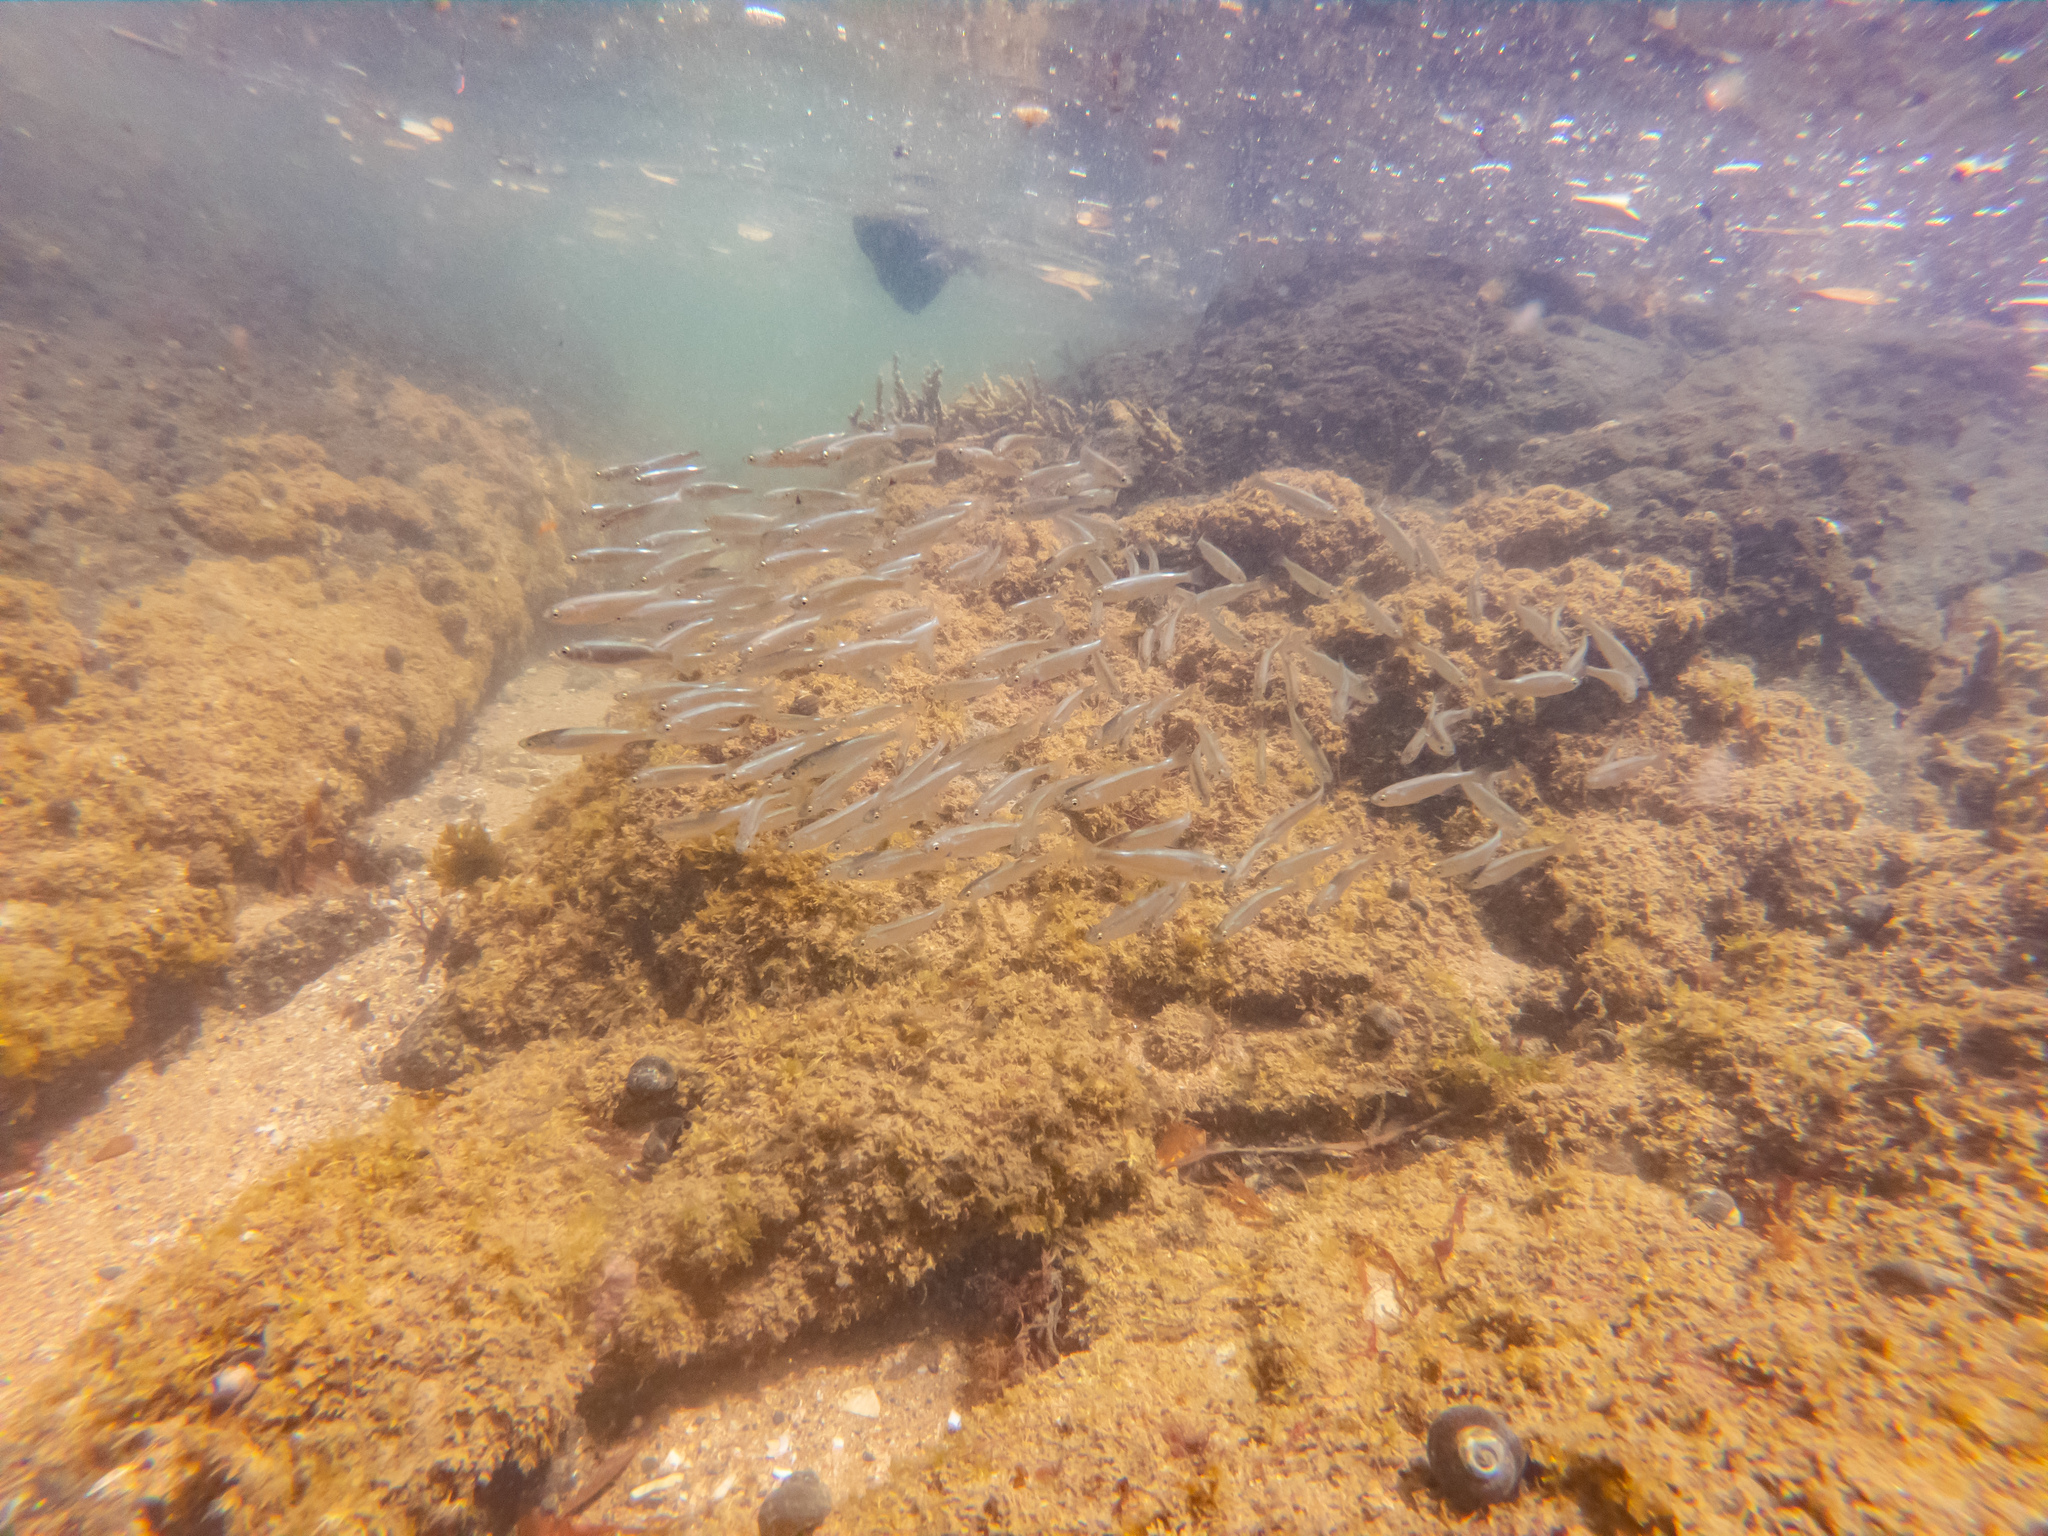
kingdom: Animalia
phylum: Chordata
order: Mugiliformes
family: Mugilidae
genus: Aldrichetta
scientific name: Aldrichetta forsteri
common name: Yellow-eye mullet
